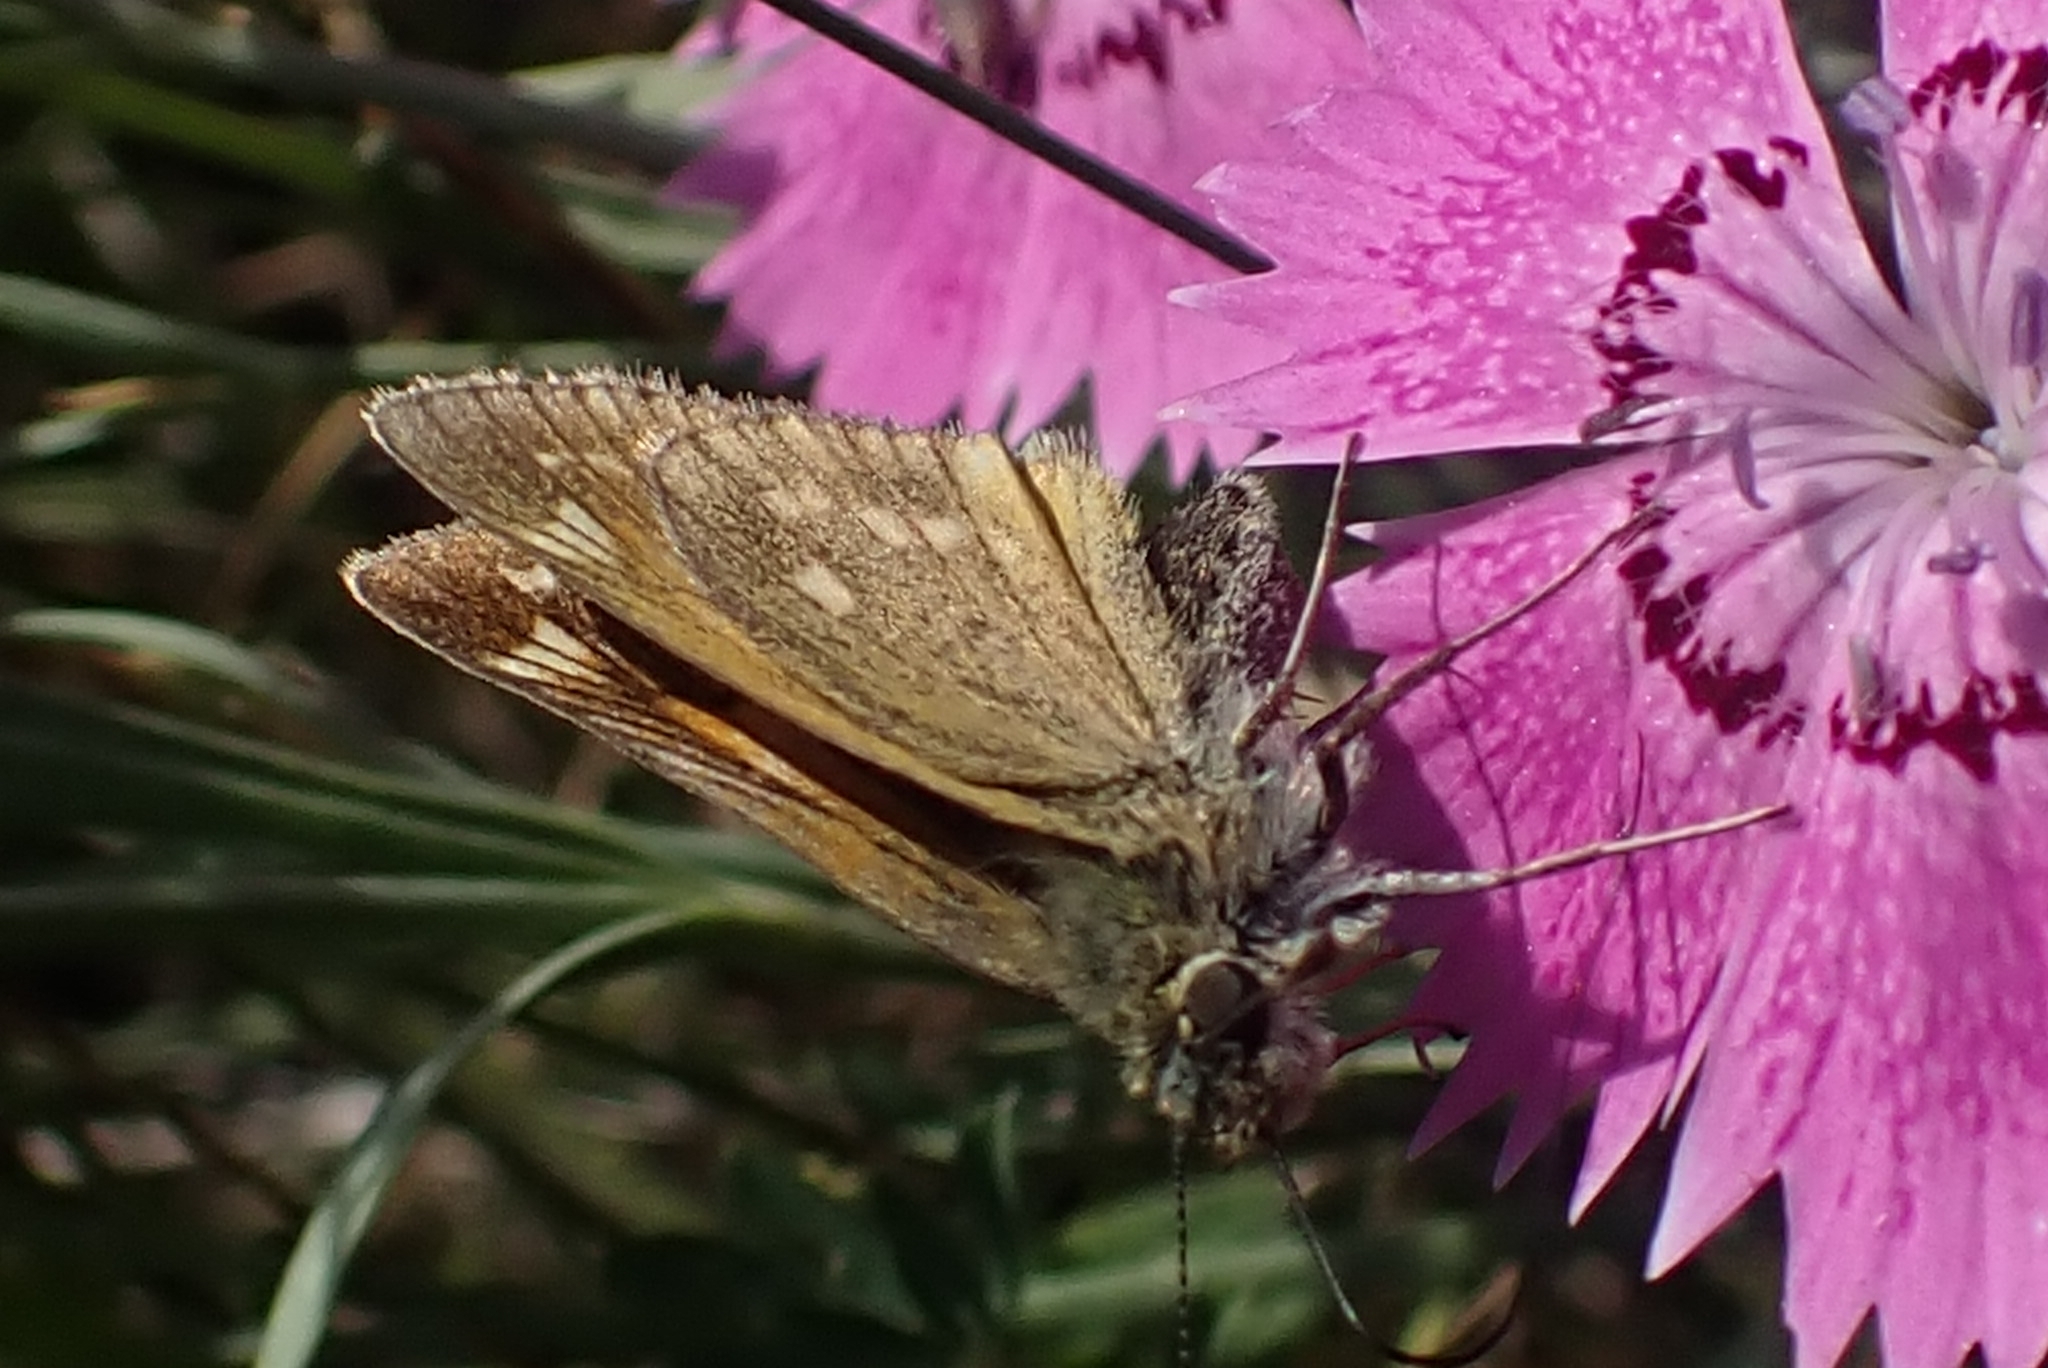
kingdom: Animalia
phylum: Arthropoda
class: Insecta
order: Lepidoptera
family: Hesperiidae
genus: Ochlodes
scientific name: Ochlodes venata
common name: Large skipper
